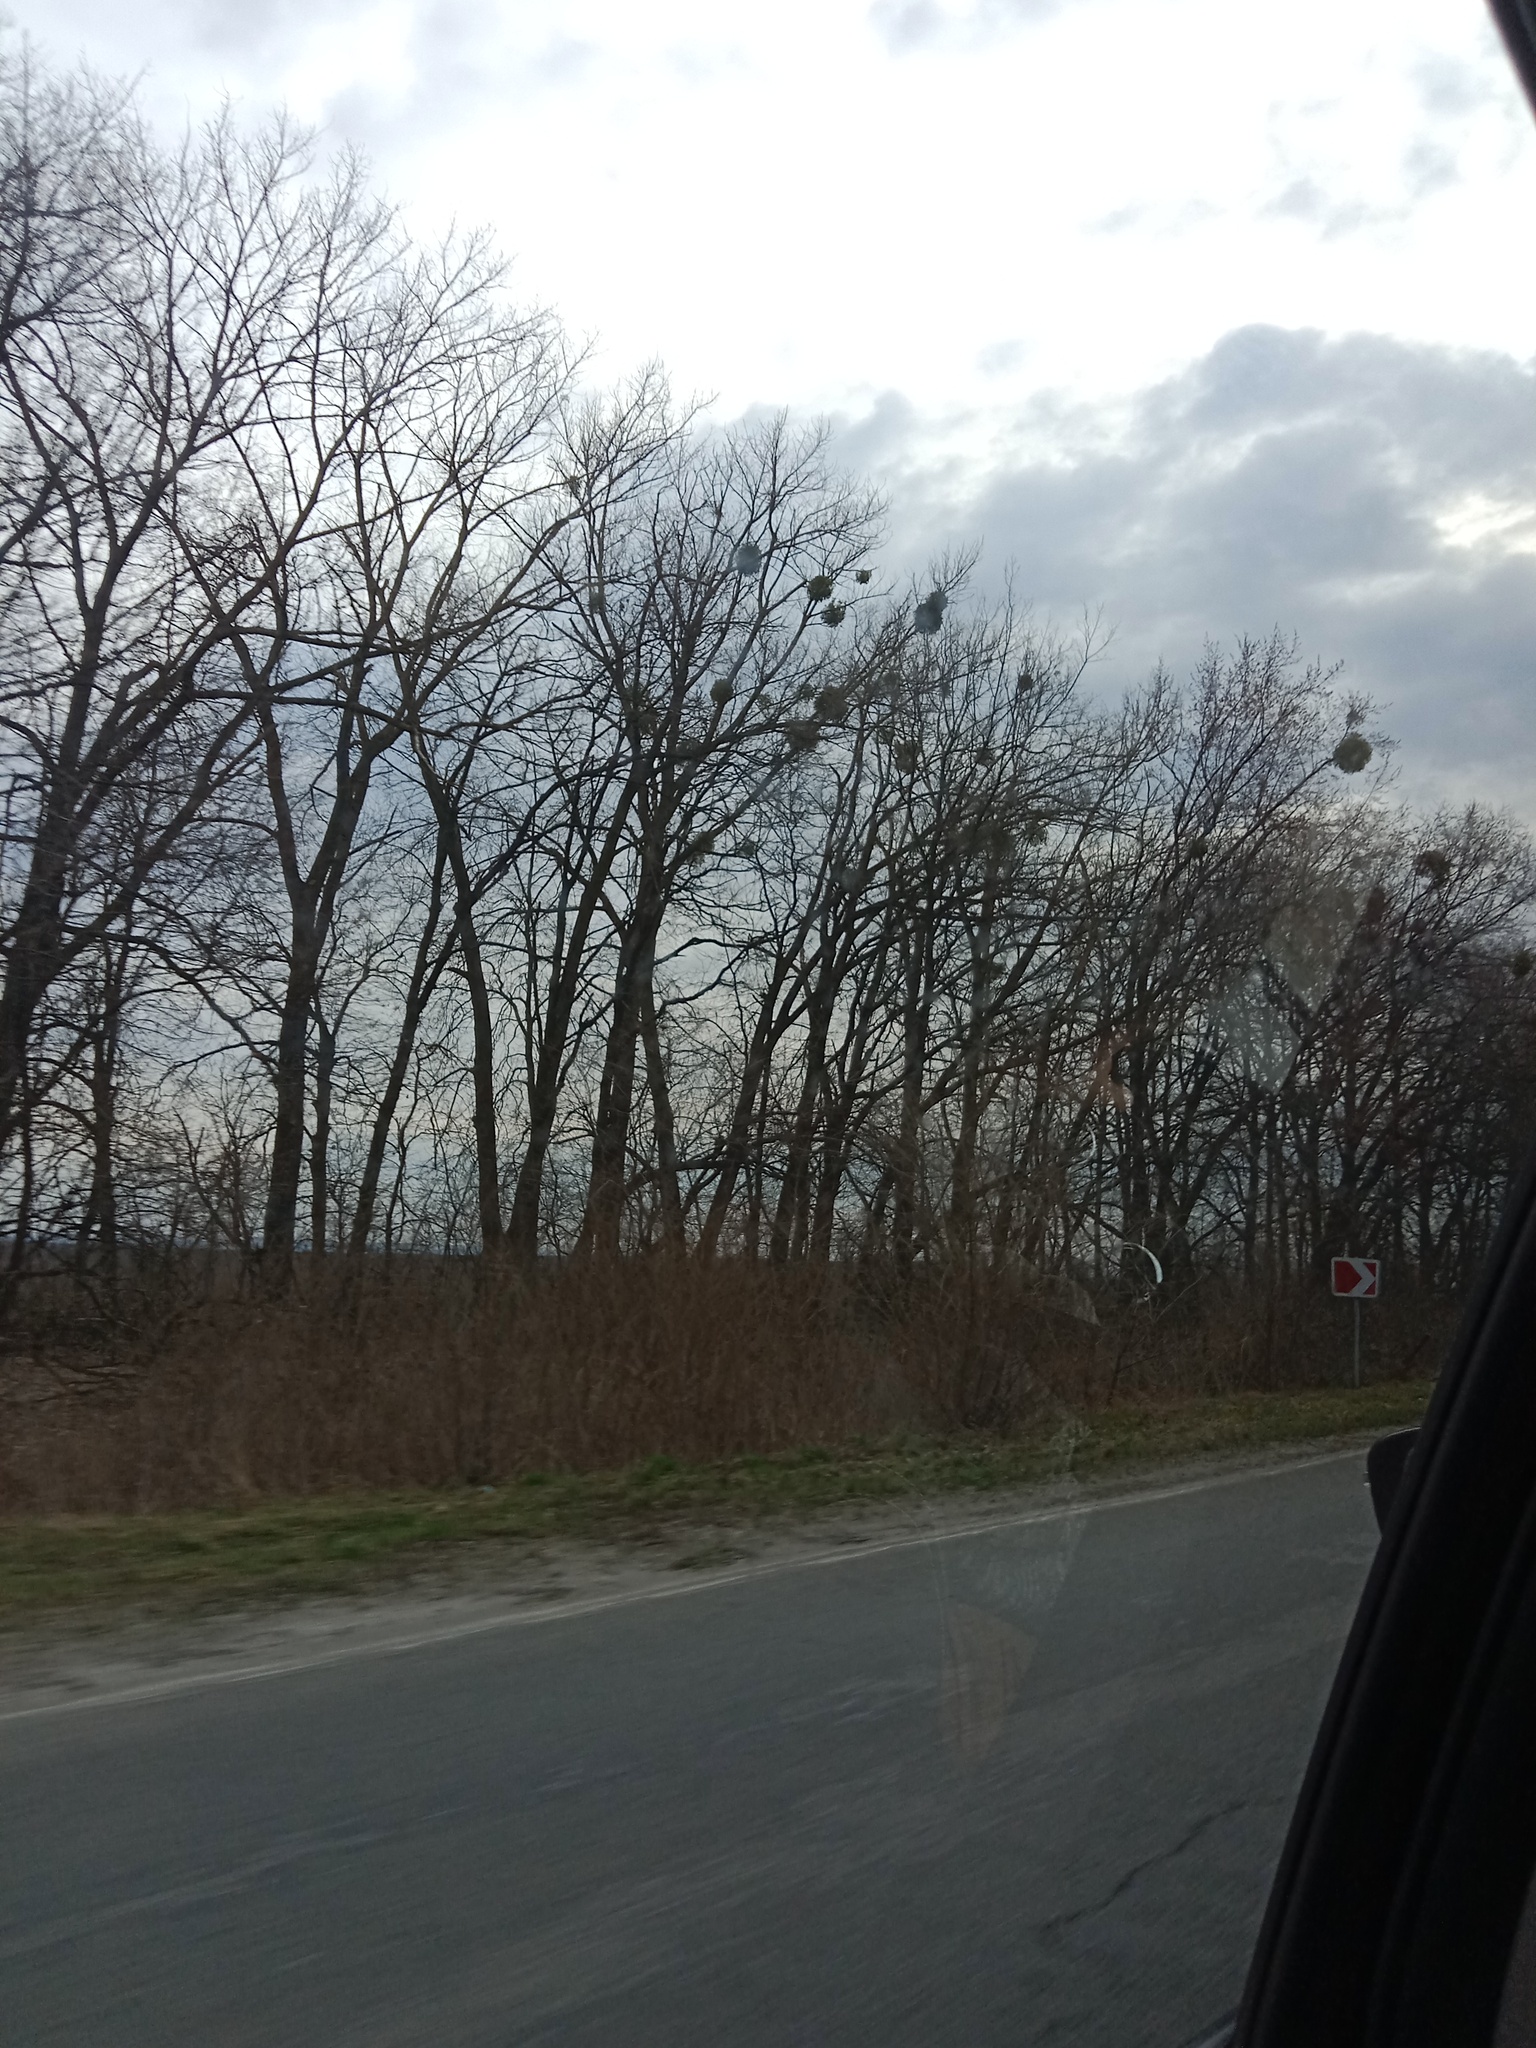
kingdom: Plantae
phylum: Tracheophyta
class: Magnoliopsida
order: Santalales
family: Viscaceae
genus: Viscum
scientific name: Viscum album
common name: Mistletoe
